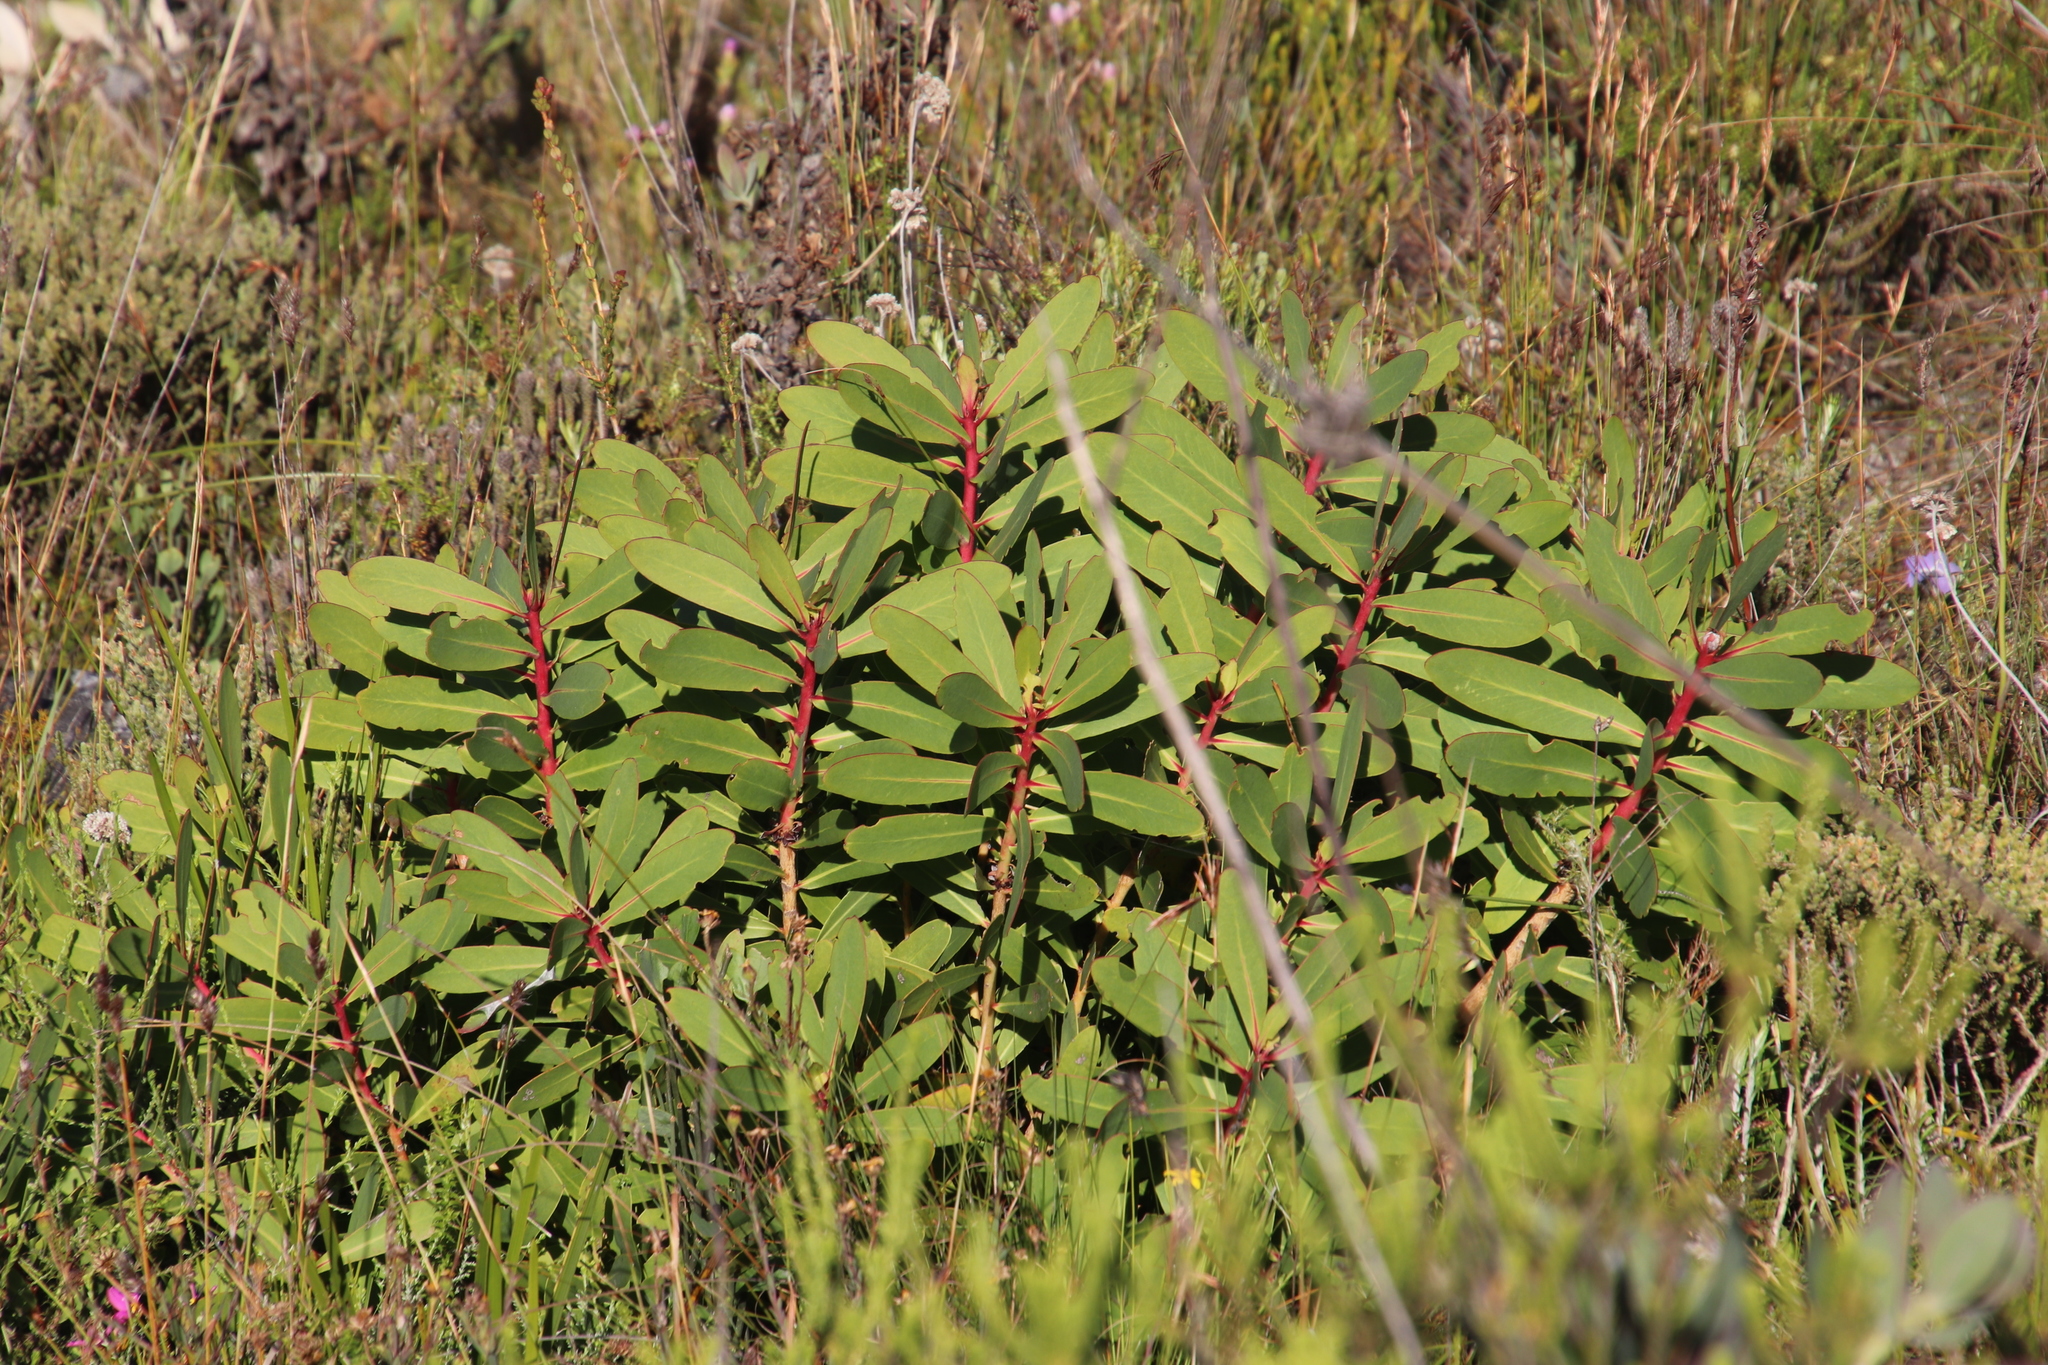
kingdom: Plantae
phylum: Tracheophyta
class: Magnoliopsida
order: Proteales
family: Proteaceae
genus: Protea
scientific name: Protea nitida
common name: Tree protea
